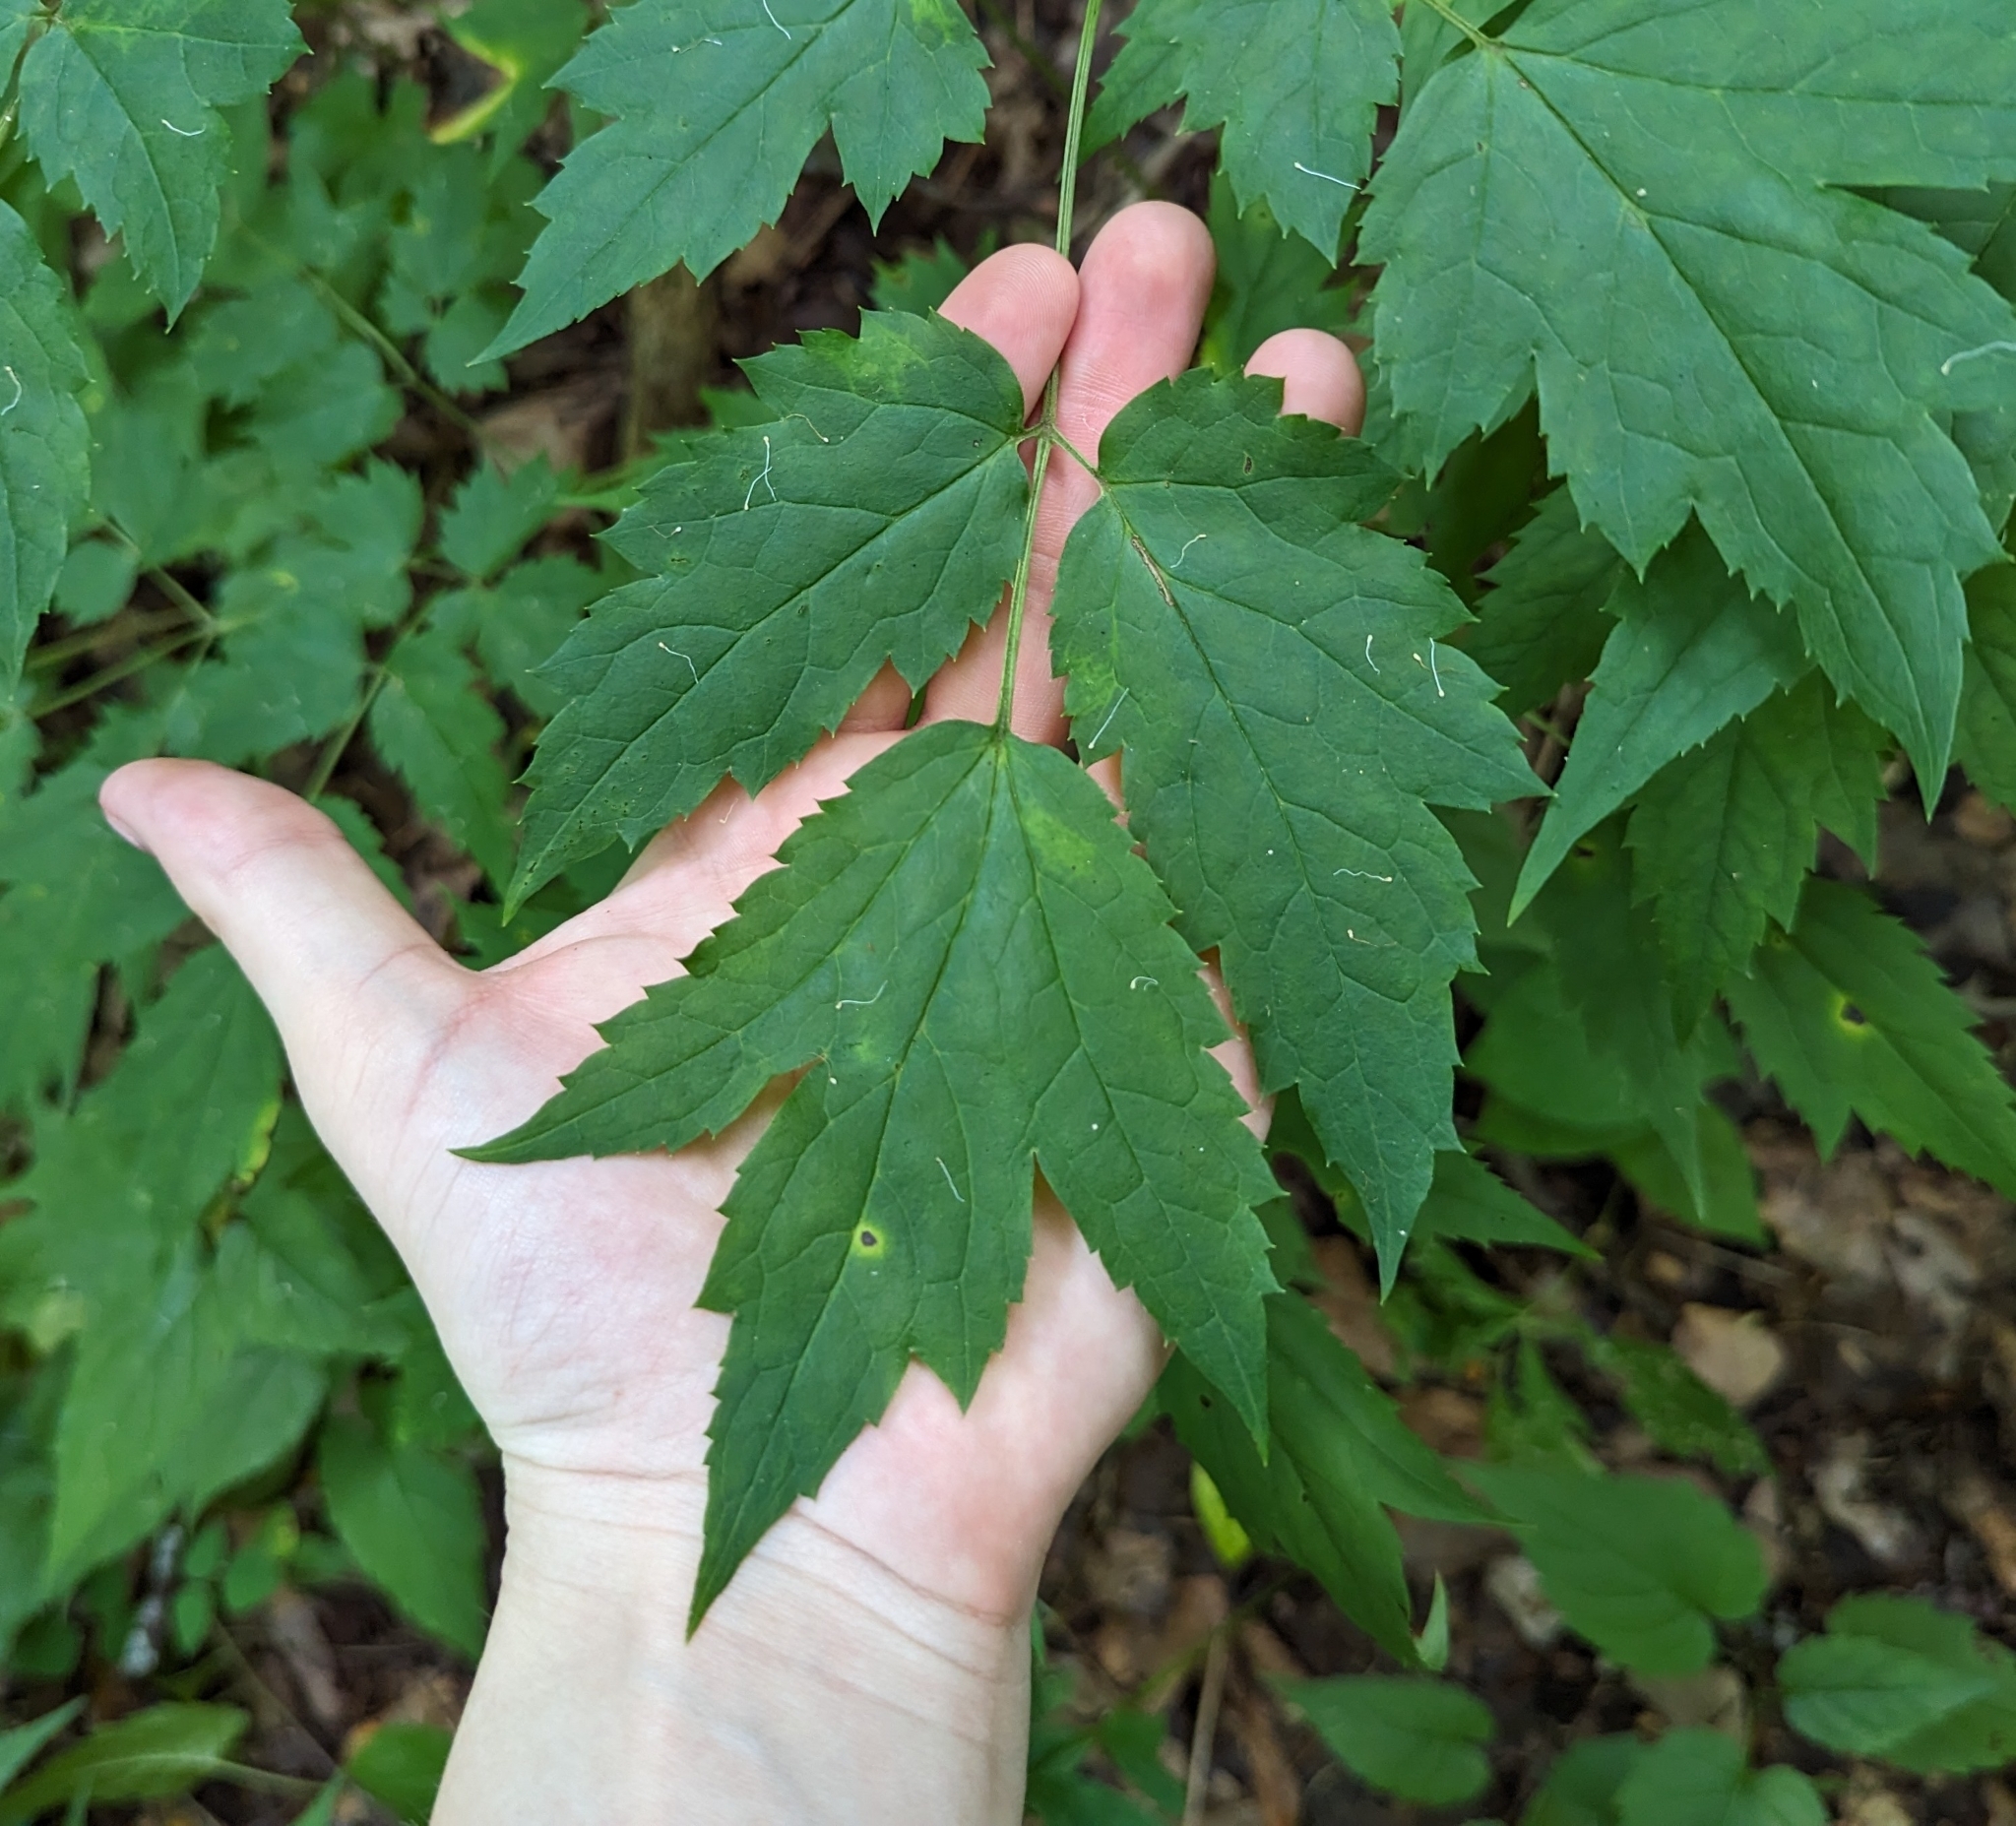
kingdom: Plantae
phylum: Tracheophyta
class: Magnoliopsida
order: Ranunculales
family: Ranunculaceae
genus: Actaea
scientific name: Actaea racemosa
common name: Black cohosh
